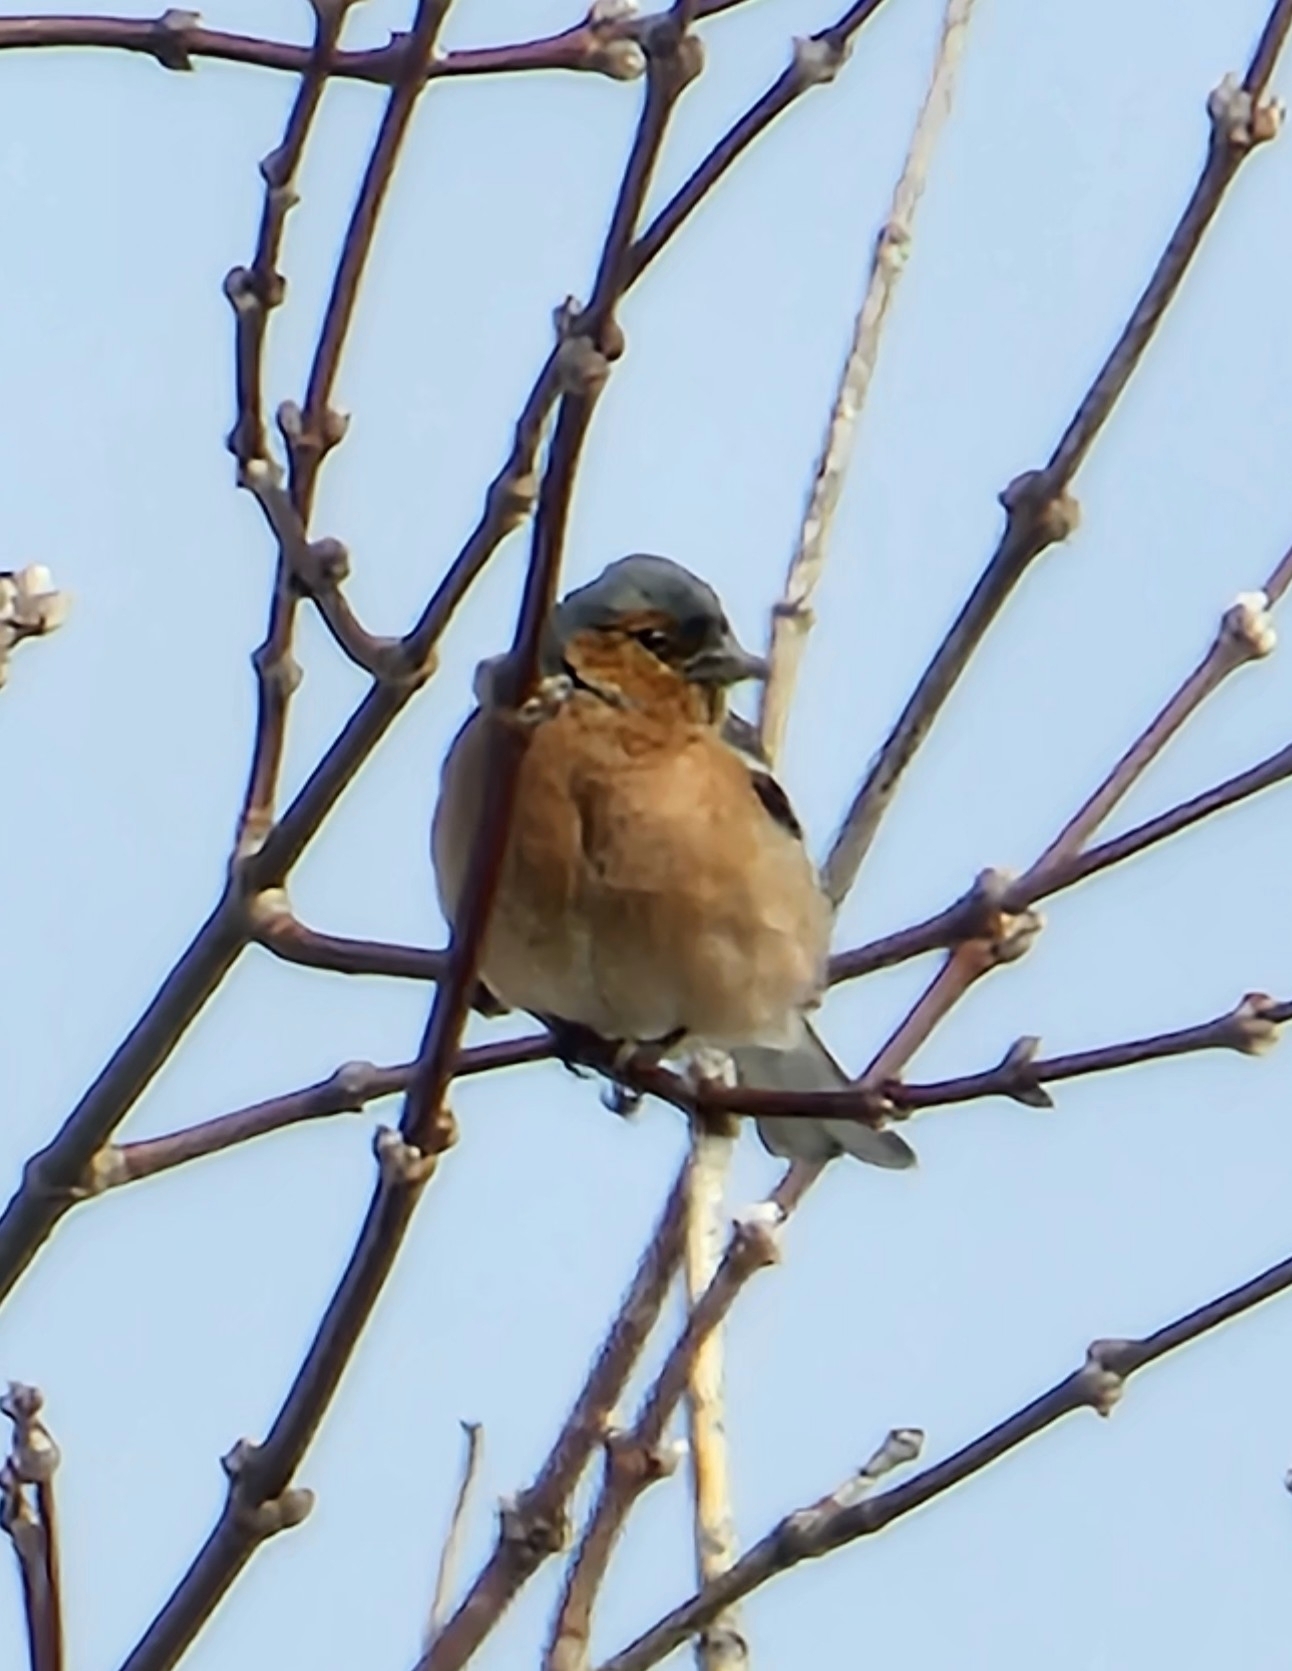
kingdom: Animalia
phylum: Chordata
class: Aves
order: Passeriformes
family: Fringillidae
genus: Fringilla
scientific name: Fringilla coelebs
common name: Common chaffinch
